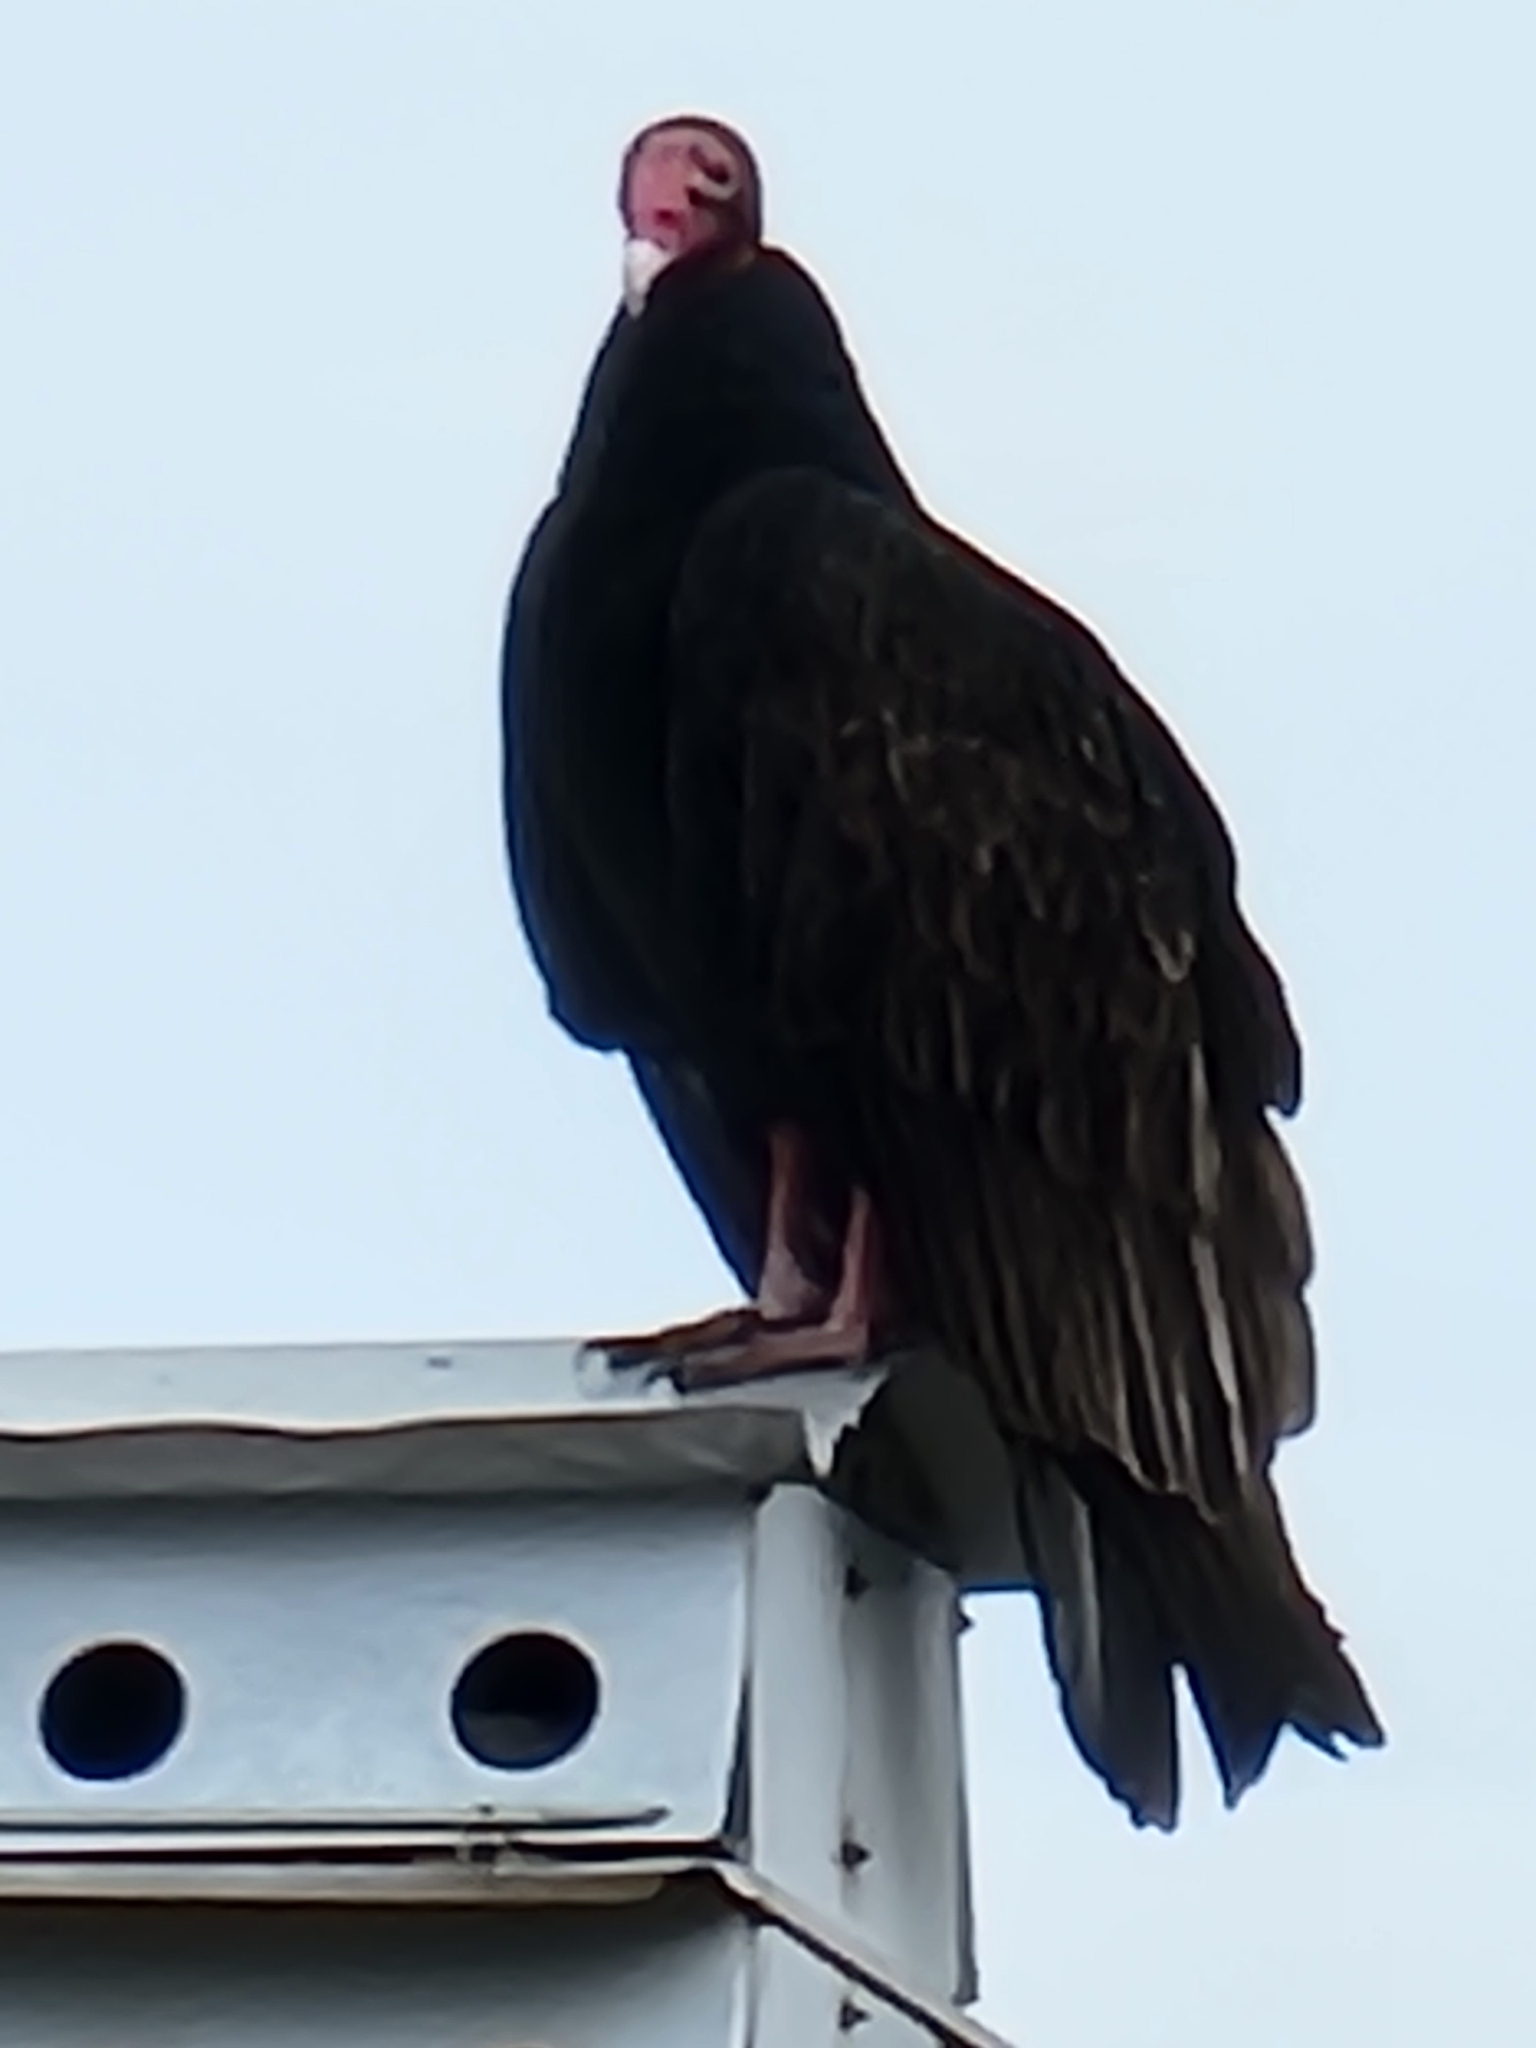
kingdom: Animalia
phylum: Chordata
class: Aves
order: Accipitriformes
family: Cathartidae
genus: Cathartes
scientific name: Cathartes aura
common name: Turkey vulture
